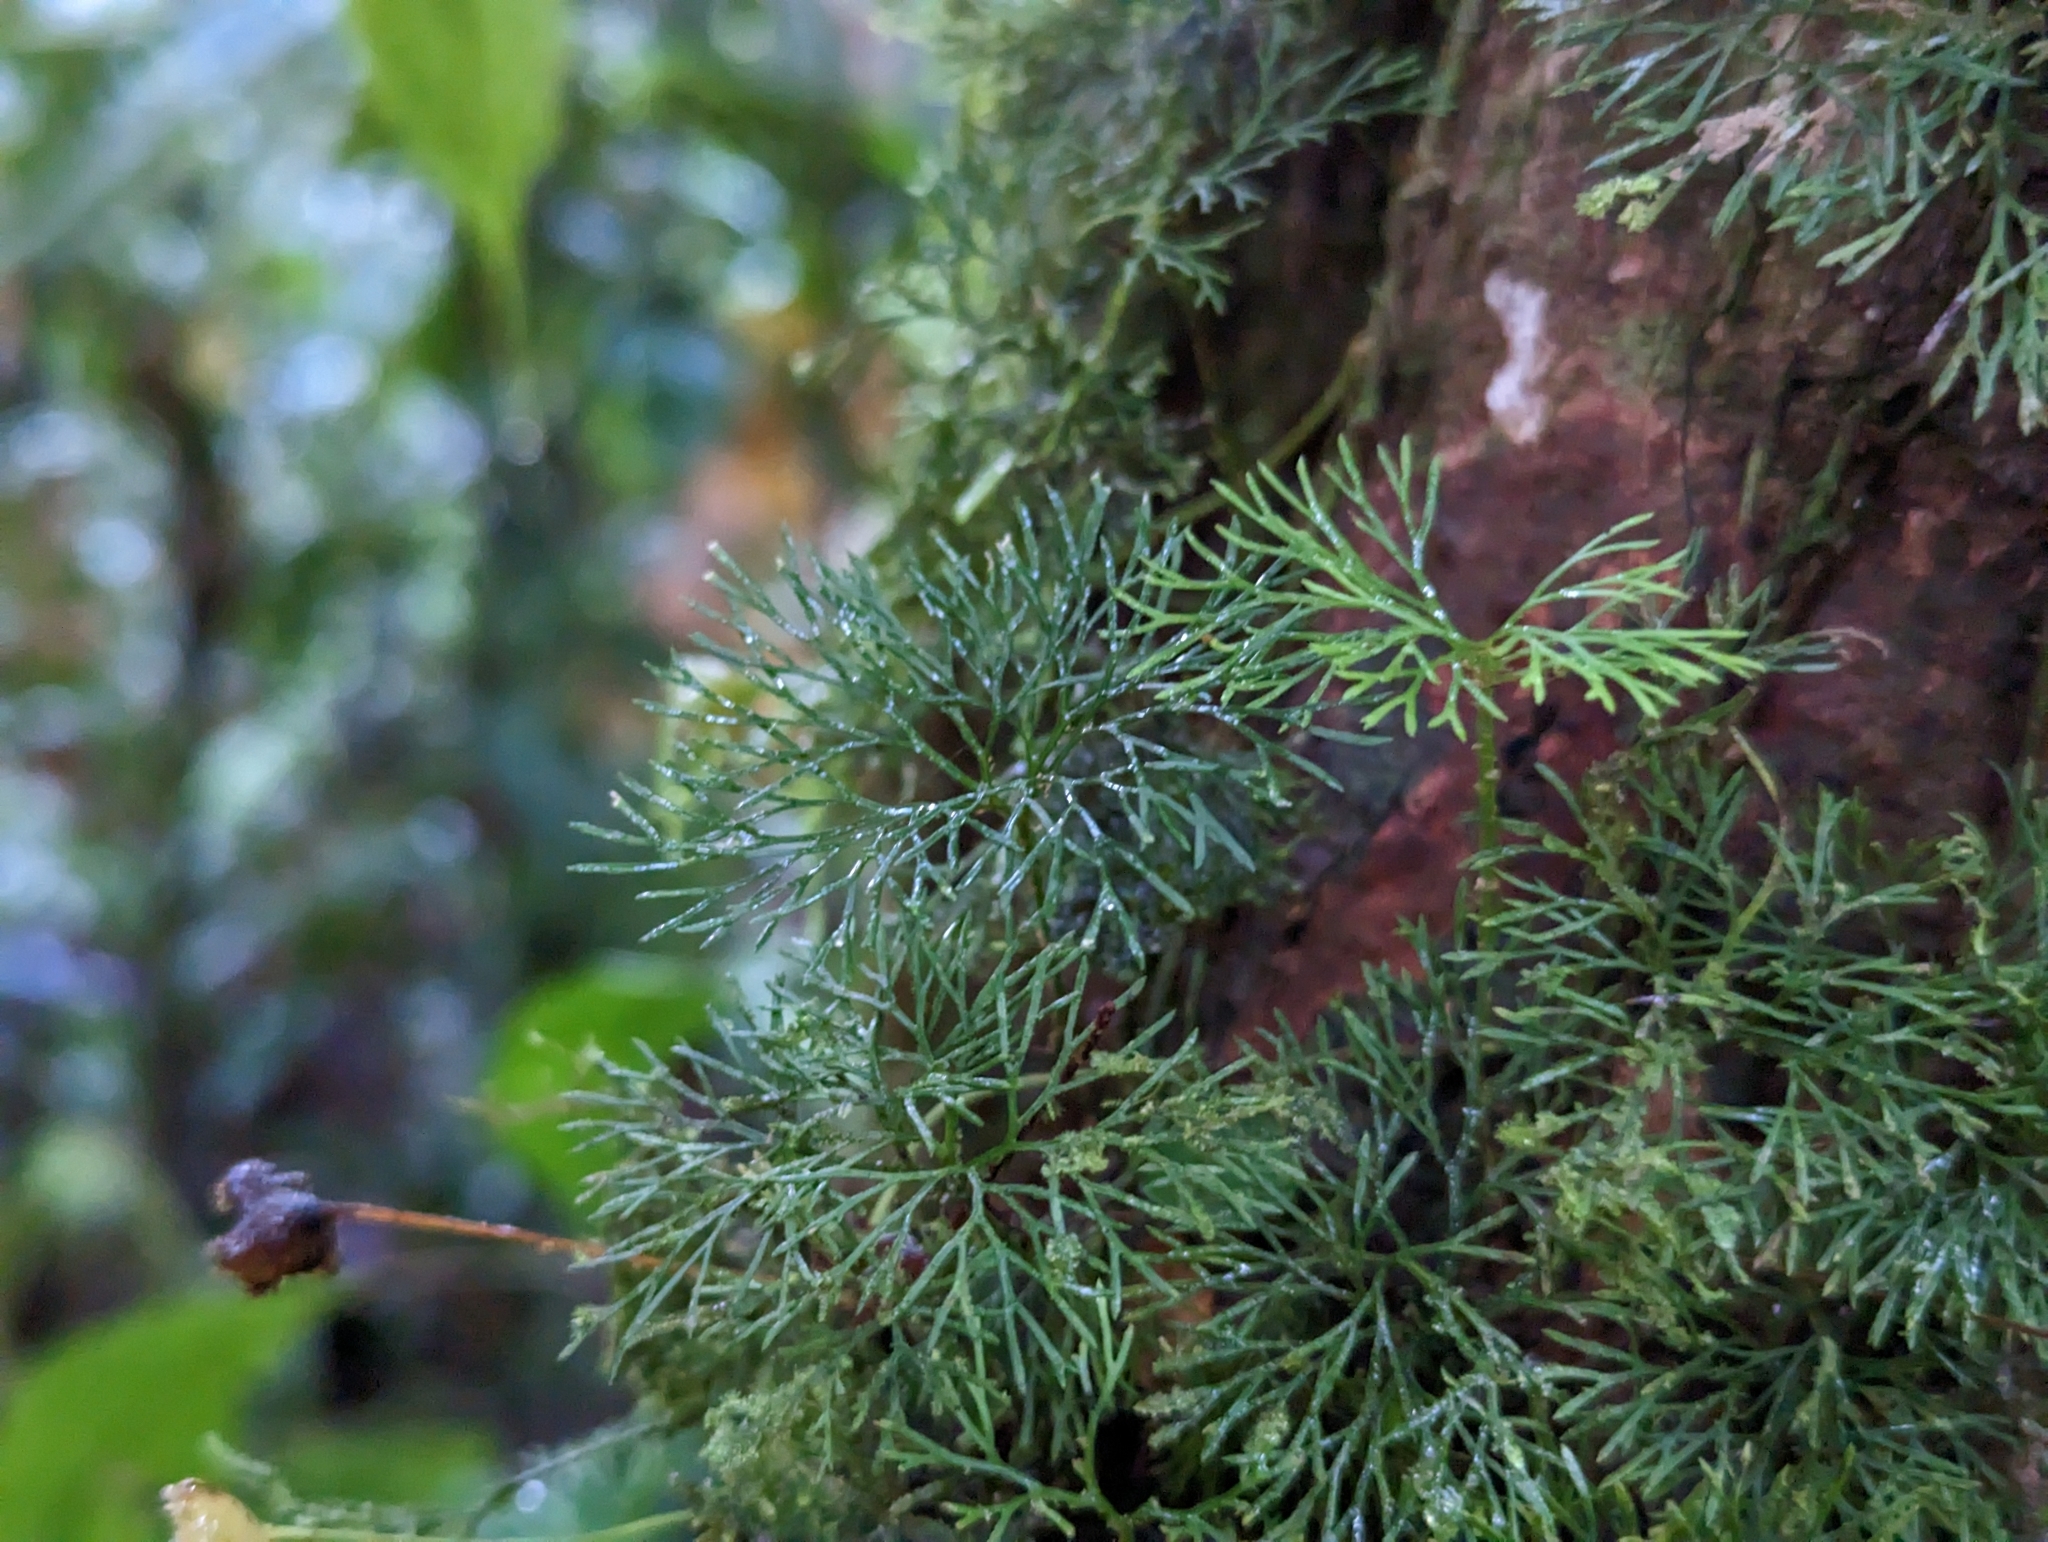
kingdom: Plantae
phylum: Tracheophyta
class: Polypodiopsida
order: Polypodiales
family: Dryopteridaceae
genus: Elaphoglossum
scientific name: Elaphoglossum peltatum
